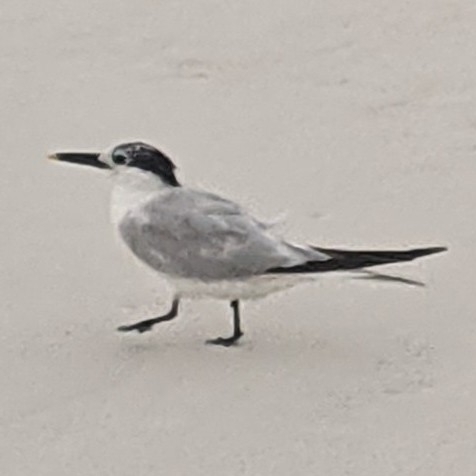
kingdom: Animalia
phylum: Chordata
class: Aves
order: Charadriiformes
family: Laridae
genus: Thalasseus
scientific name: Thalasseus sandvicensis
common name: Sandwich tern
